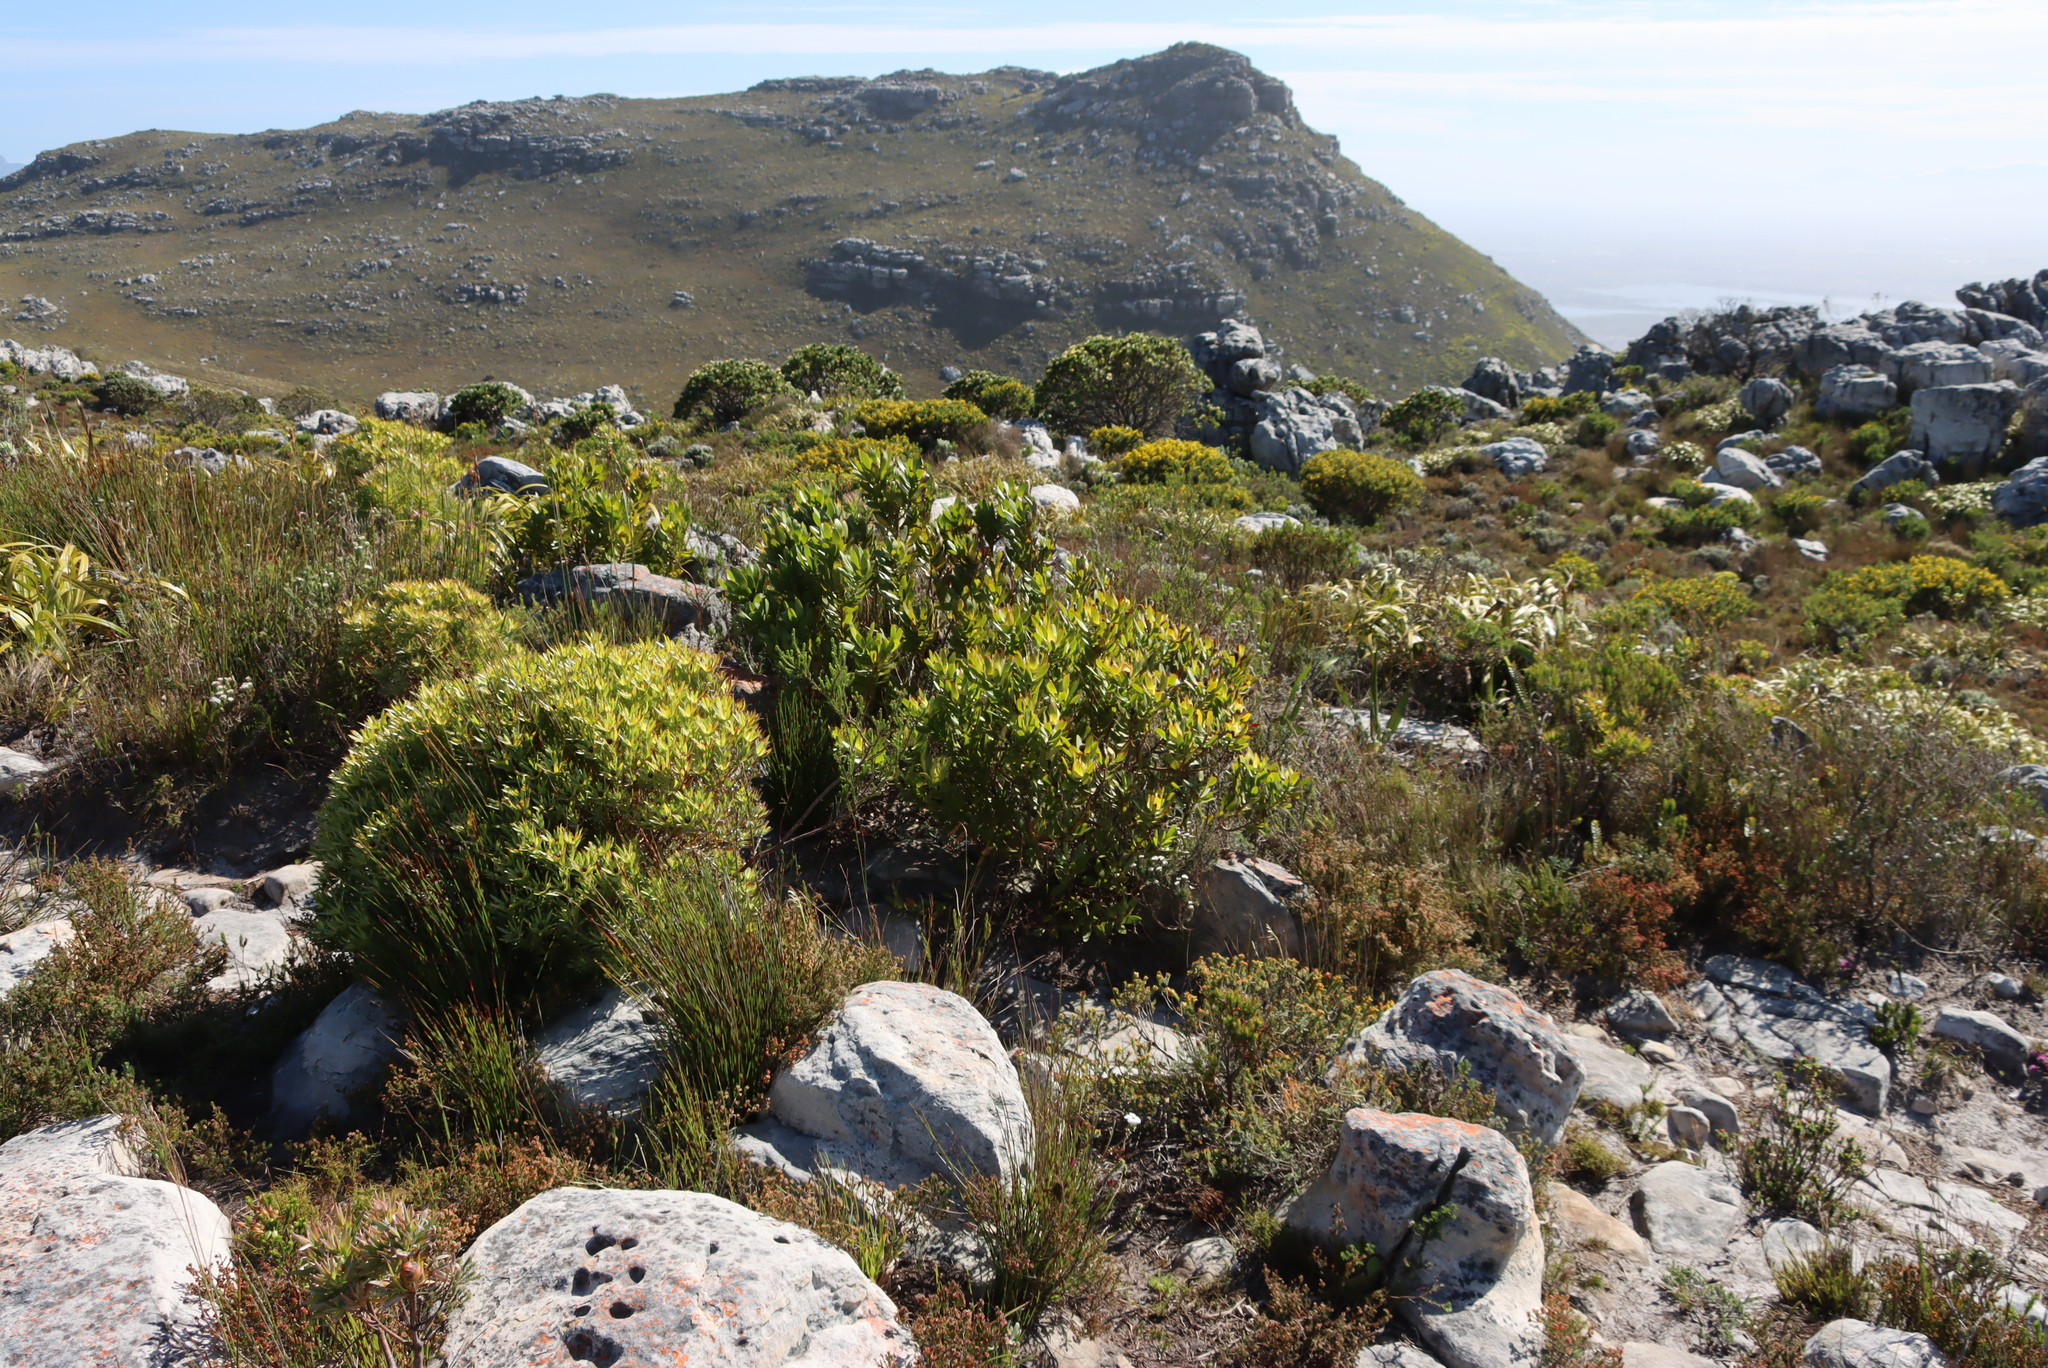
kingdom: Plantae
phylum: Tracheophyta
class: Magnoliopsida
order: Proteales
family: Proteaceae
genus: Leucadendron
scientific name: Leucadendron laureolum
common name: Golden sunshinebush
